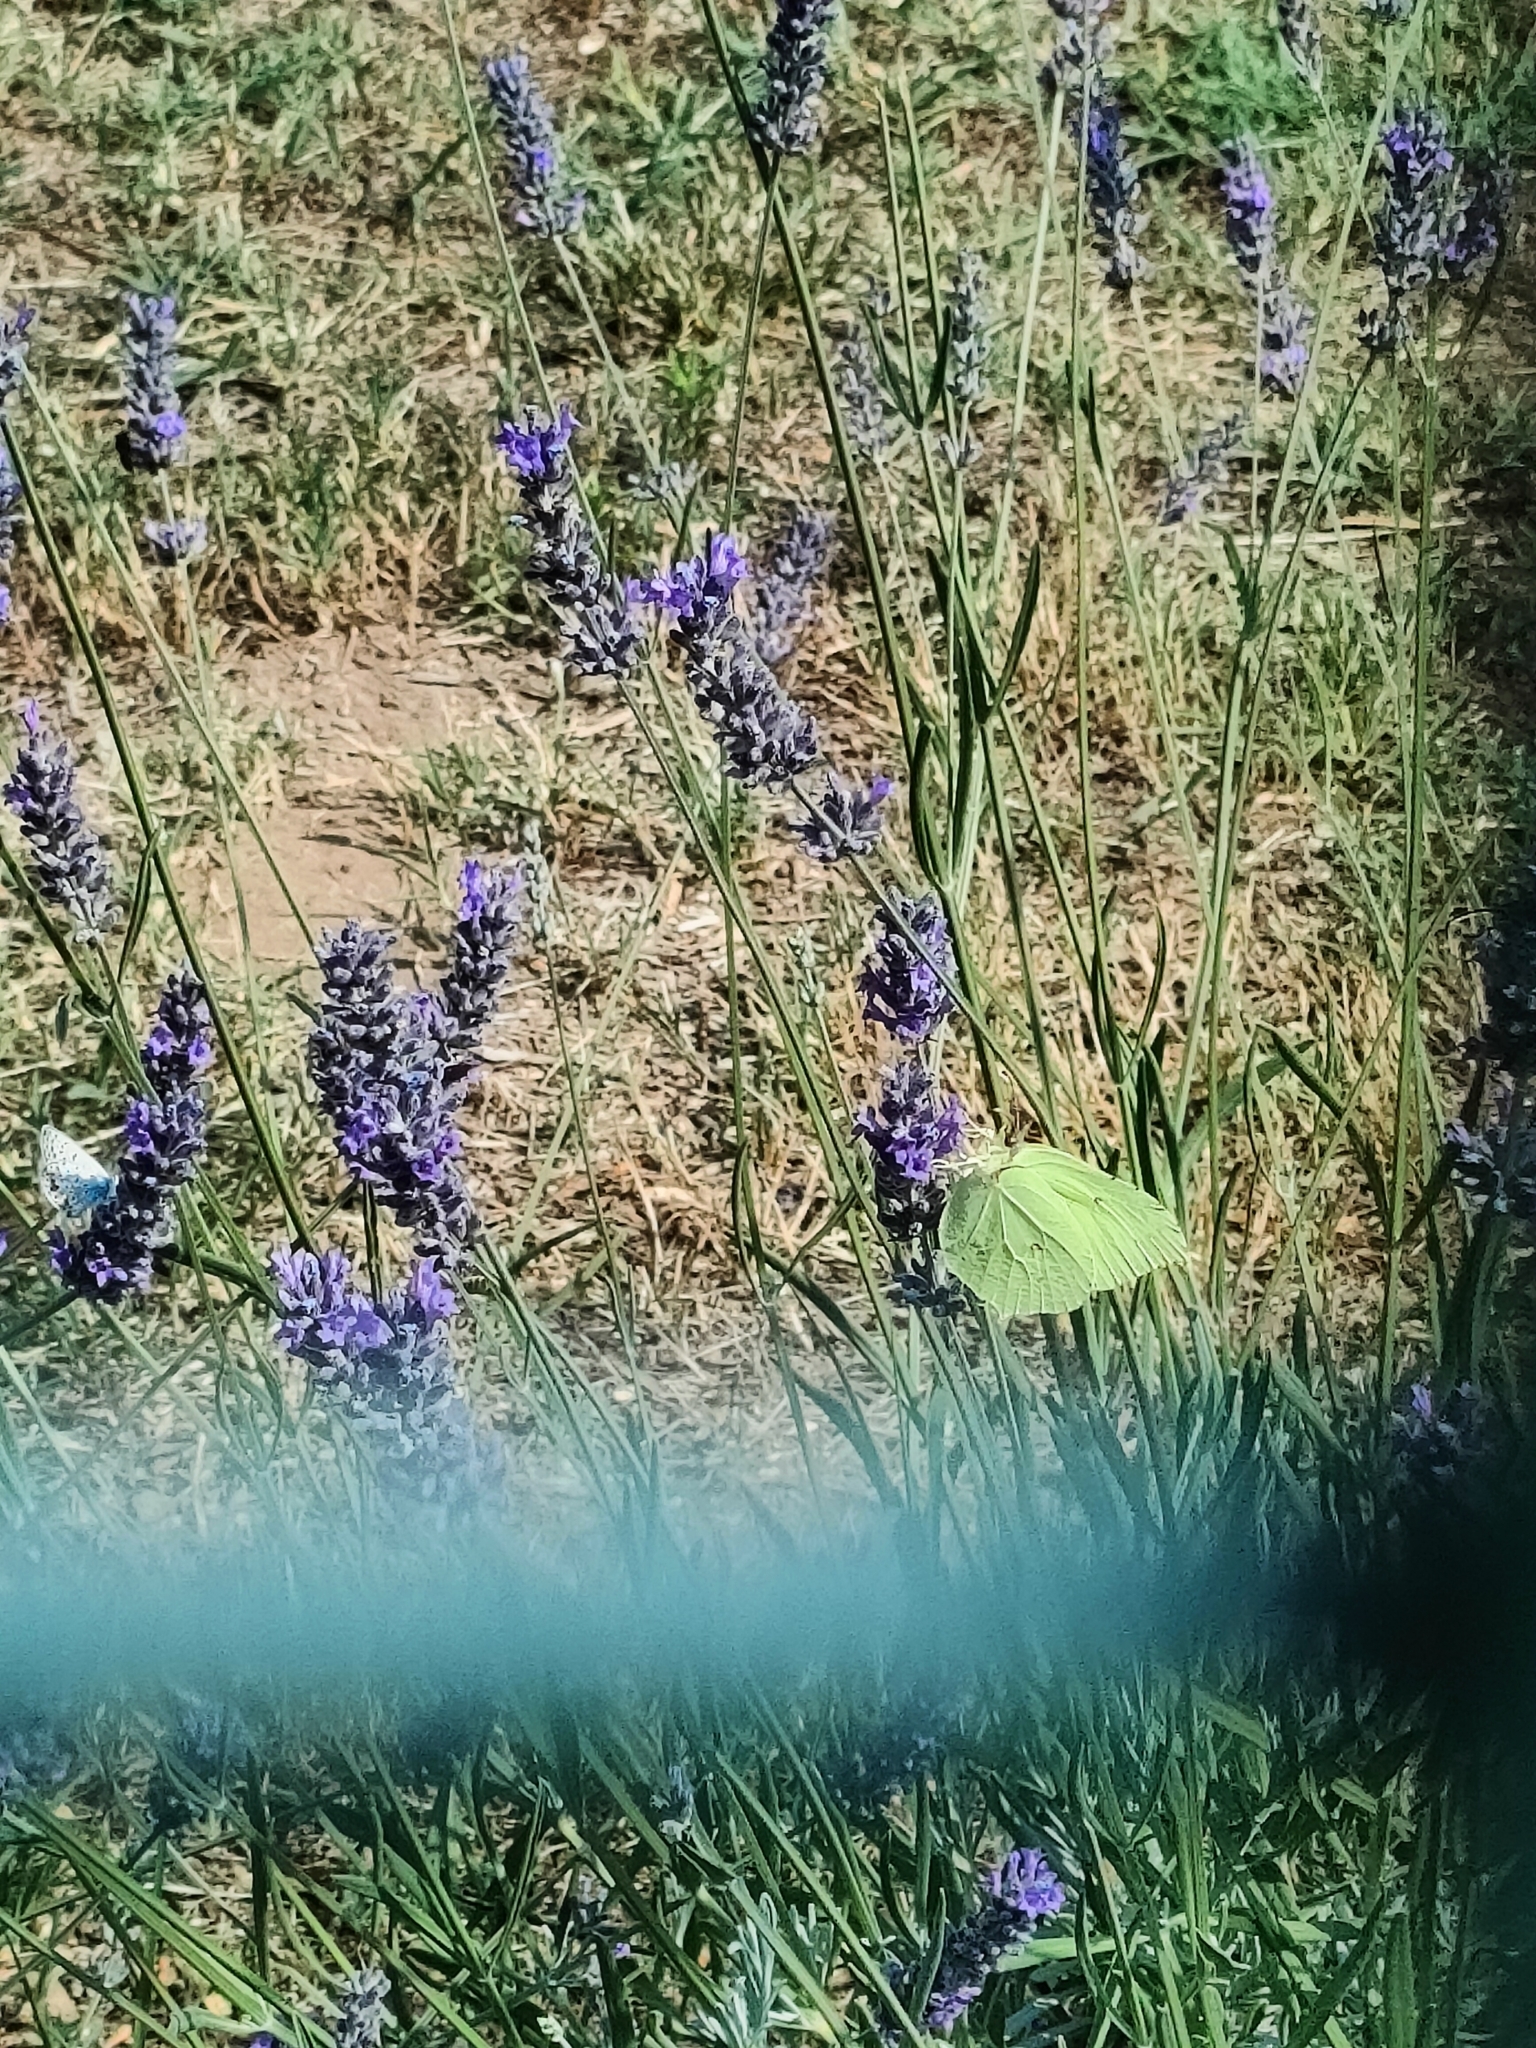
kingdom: Animalia
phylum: Arthropoda
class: Insecta
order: Lepidoptera
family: Pieridae
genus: Gonepteryx
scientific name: Gonepteryx rhamni
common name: Brimstone
